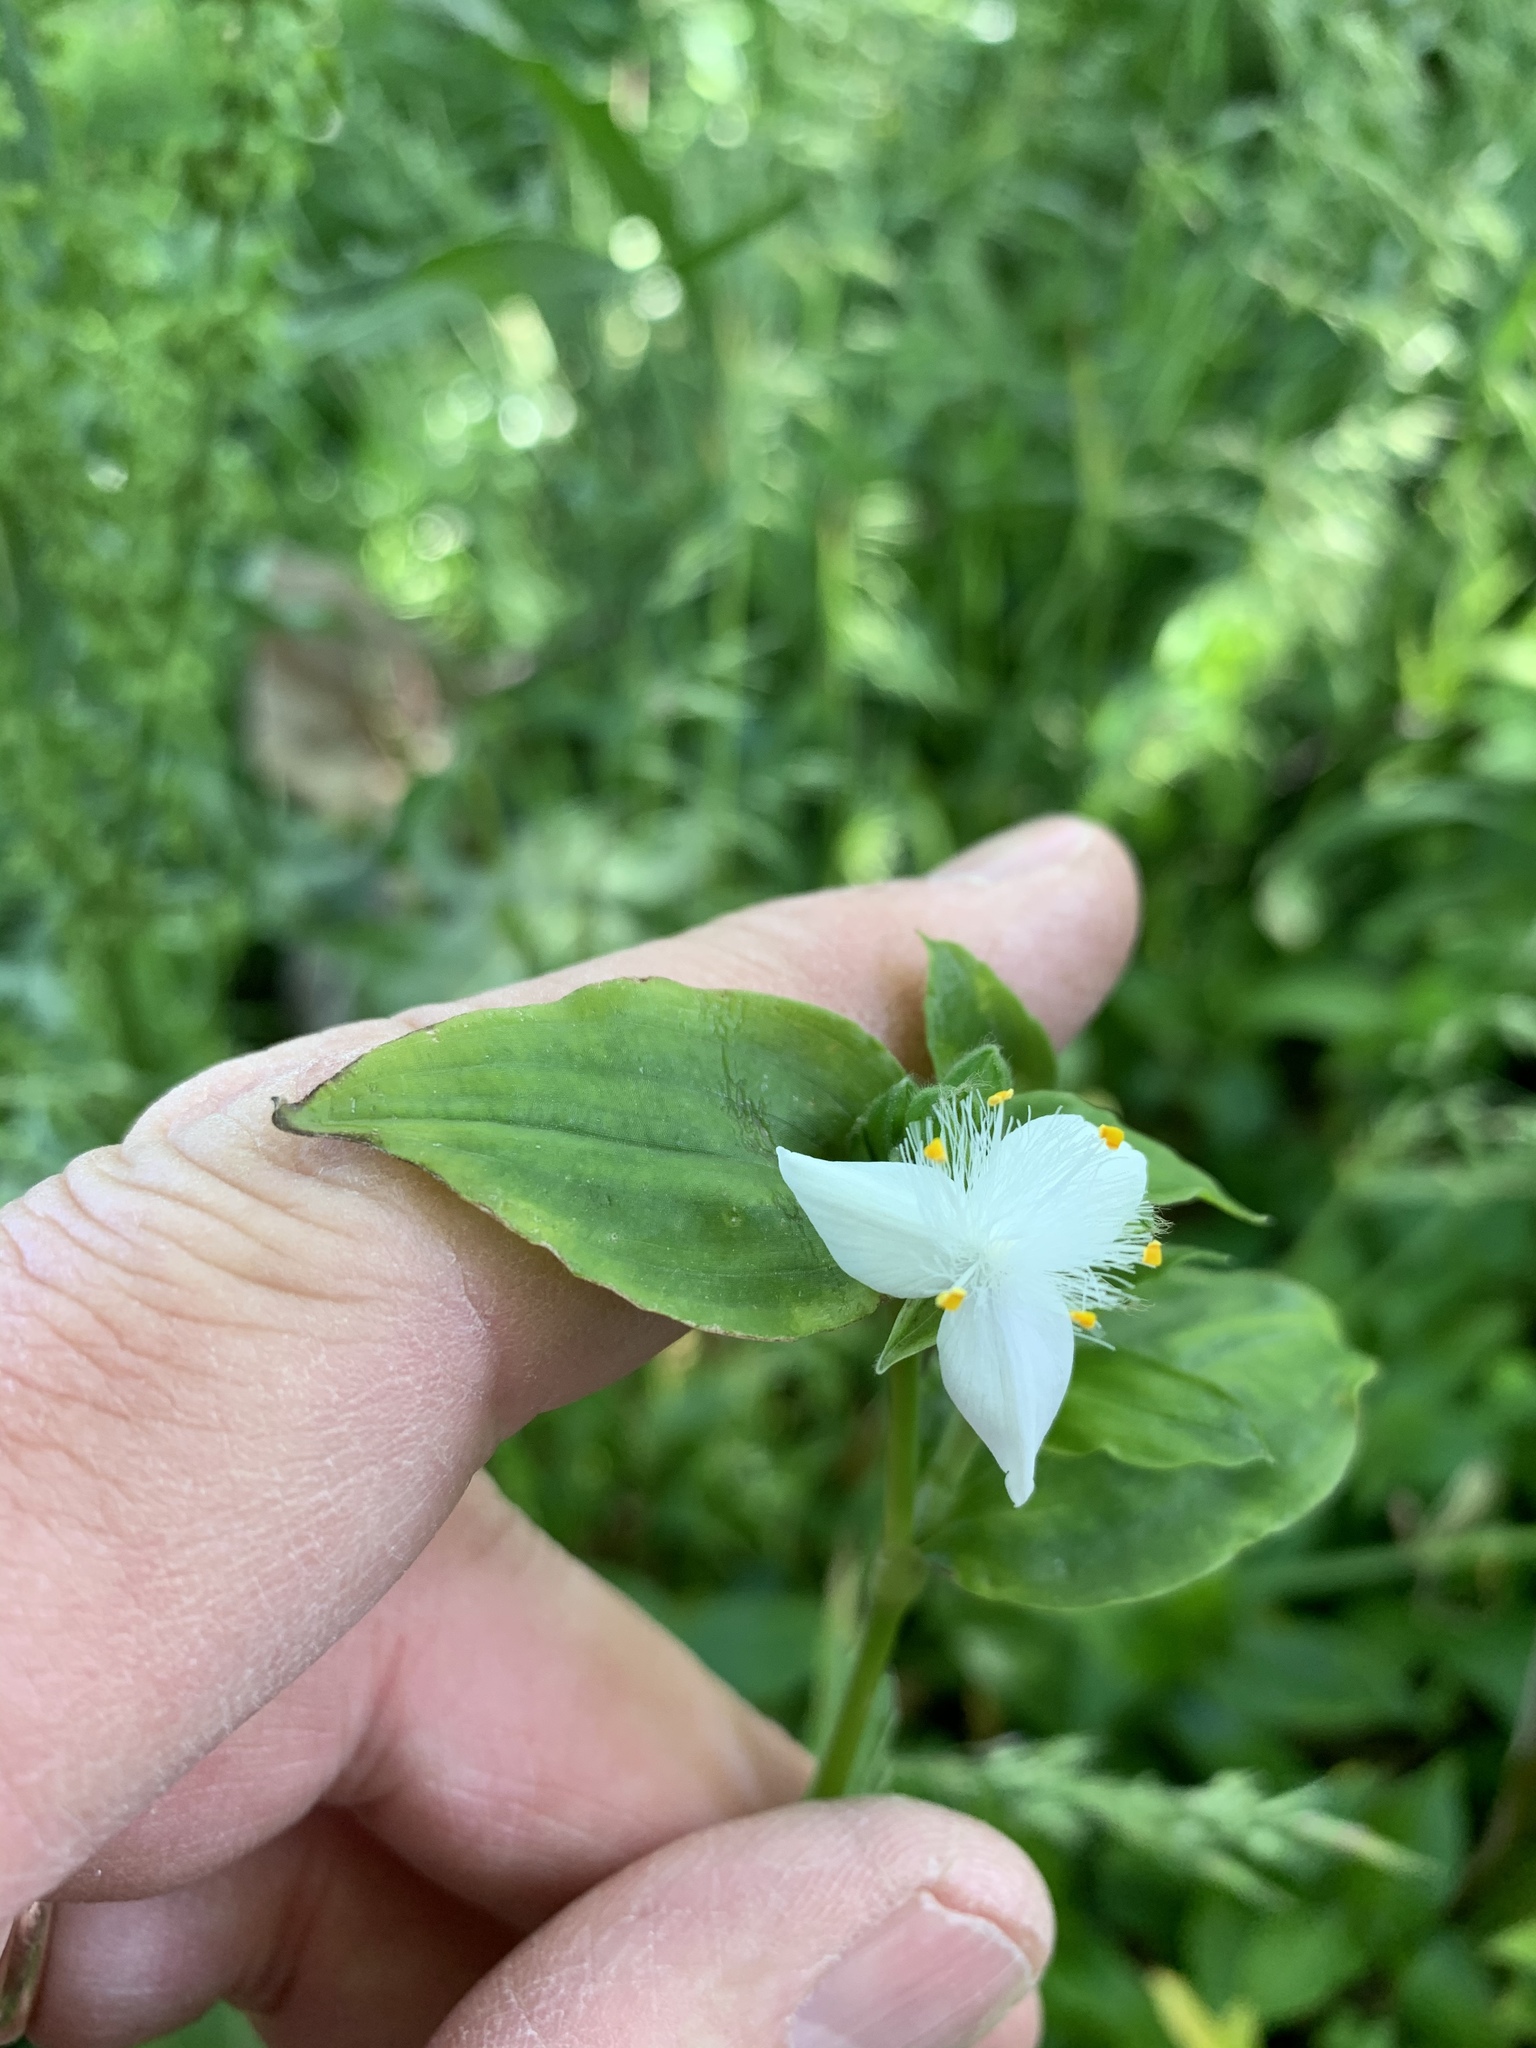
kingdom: Plantae
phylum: Tracheophyta
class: Liliopsida
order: Commelinales
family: Commelinaceae
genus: Tradescantia
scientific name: Tradescantia fluminensis
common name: Wandering-jew
